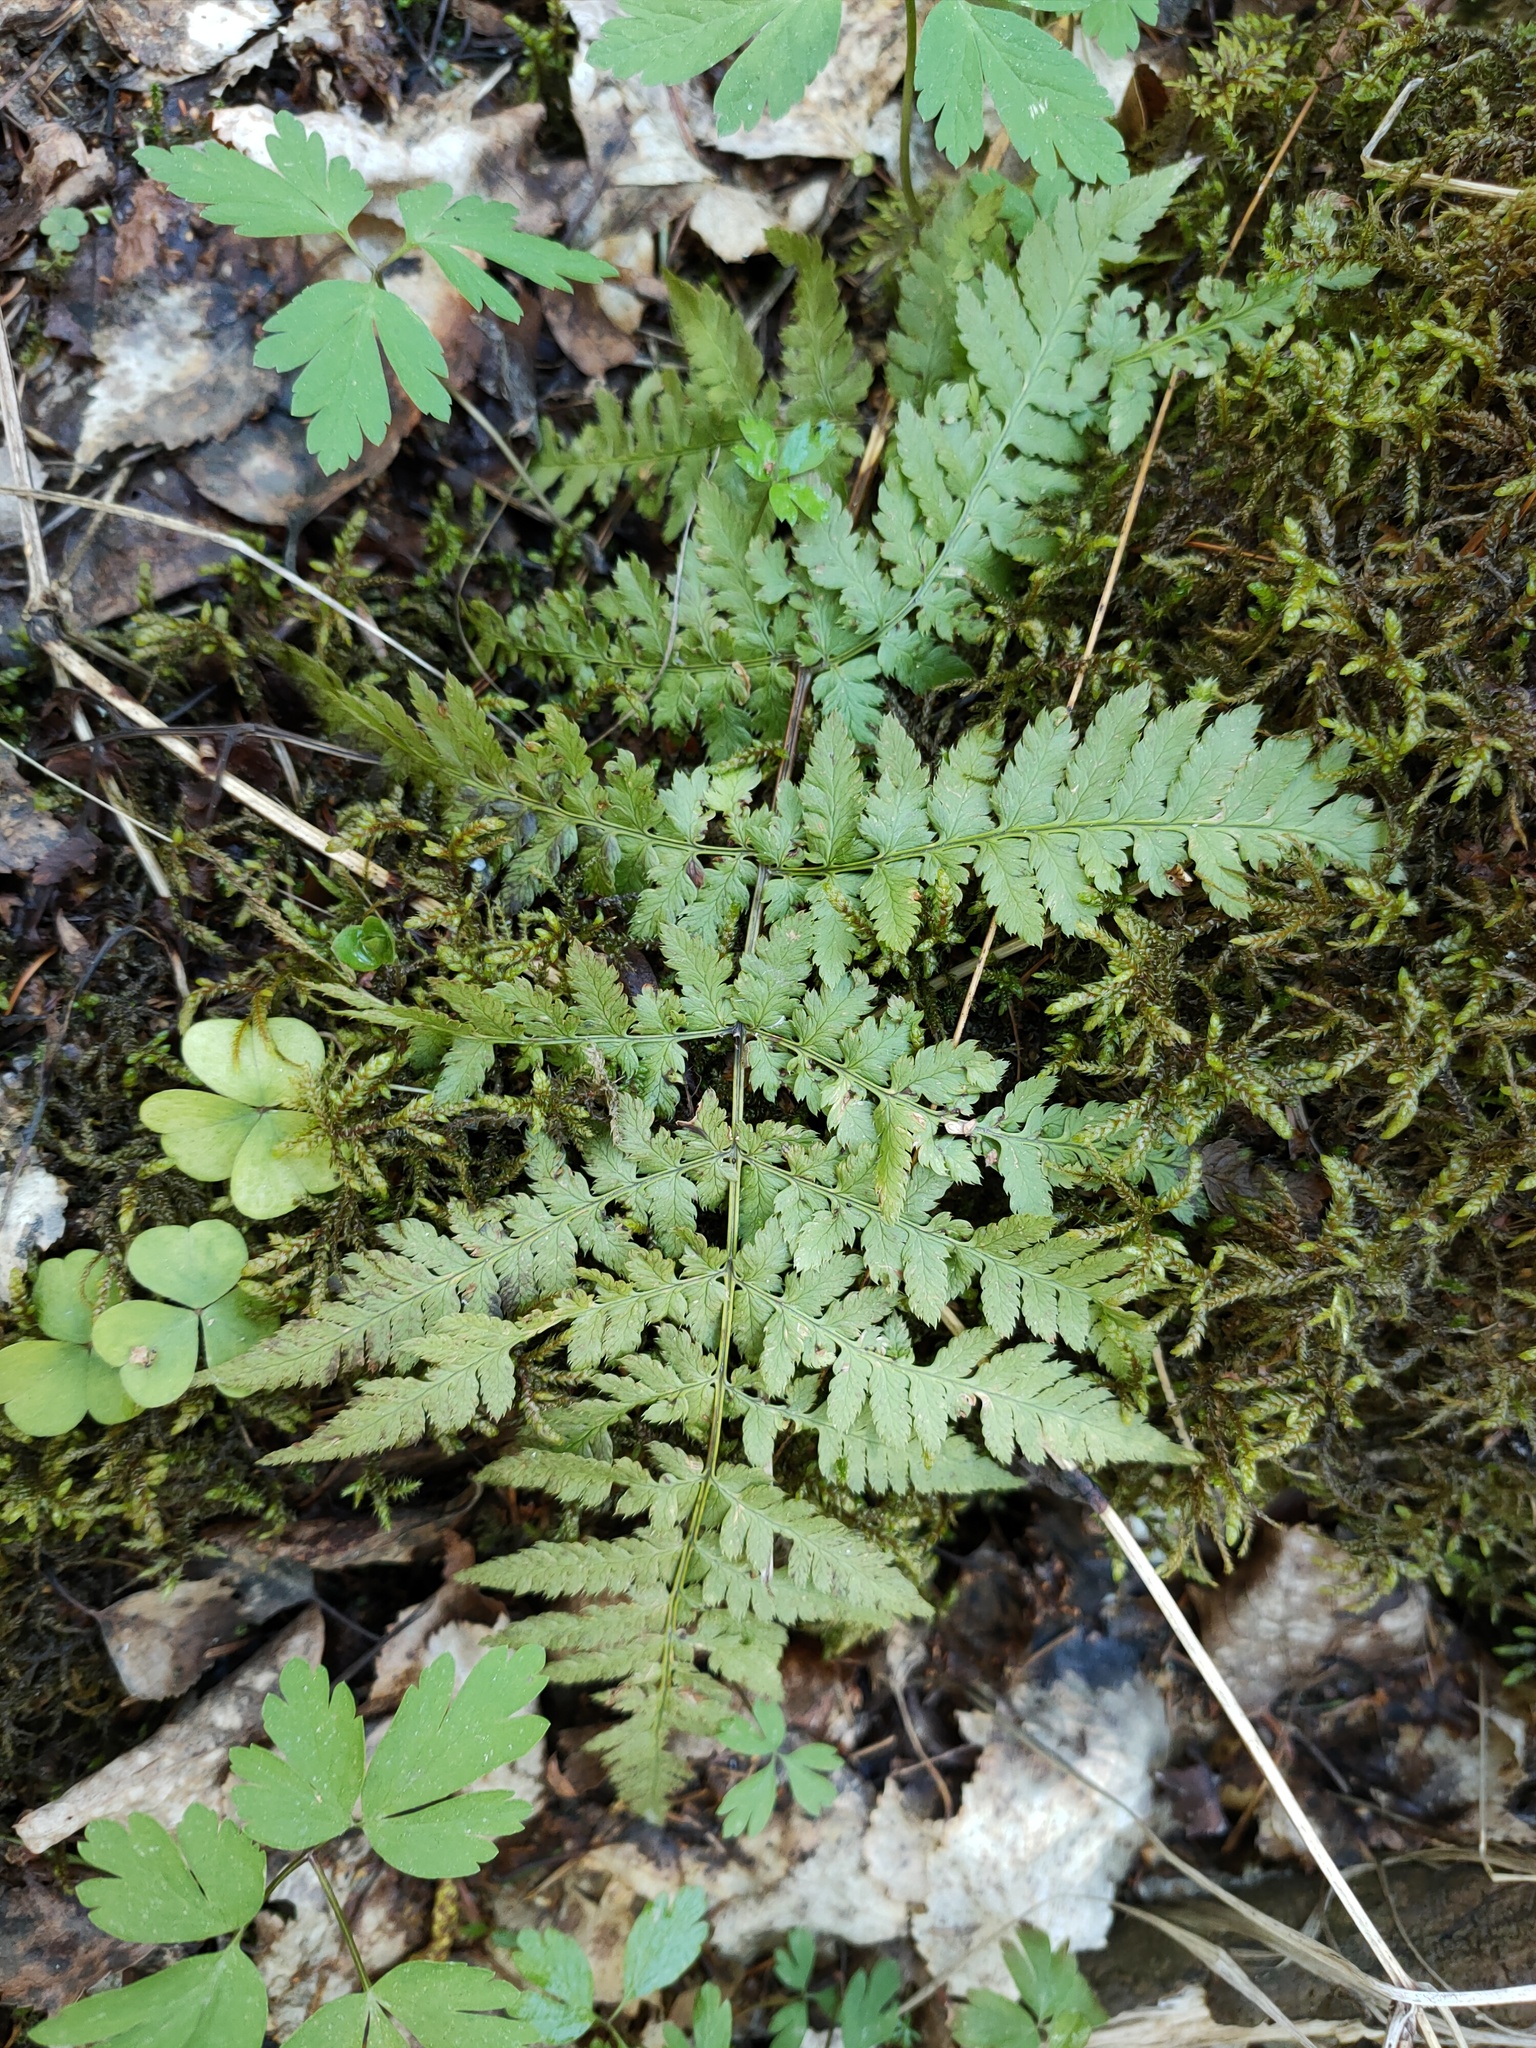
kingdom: Plantae
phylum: Tracheophyta
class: Polypodiopsida
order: Polypodiales
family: Dryopteridaceae
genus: Dryopteris
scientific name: Dryopteris carthusiana
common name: Narrow buckler-fern
